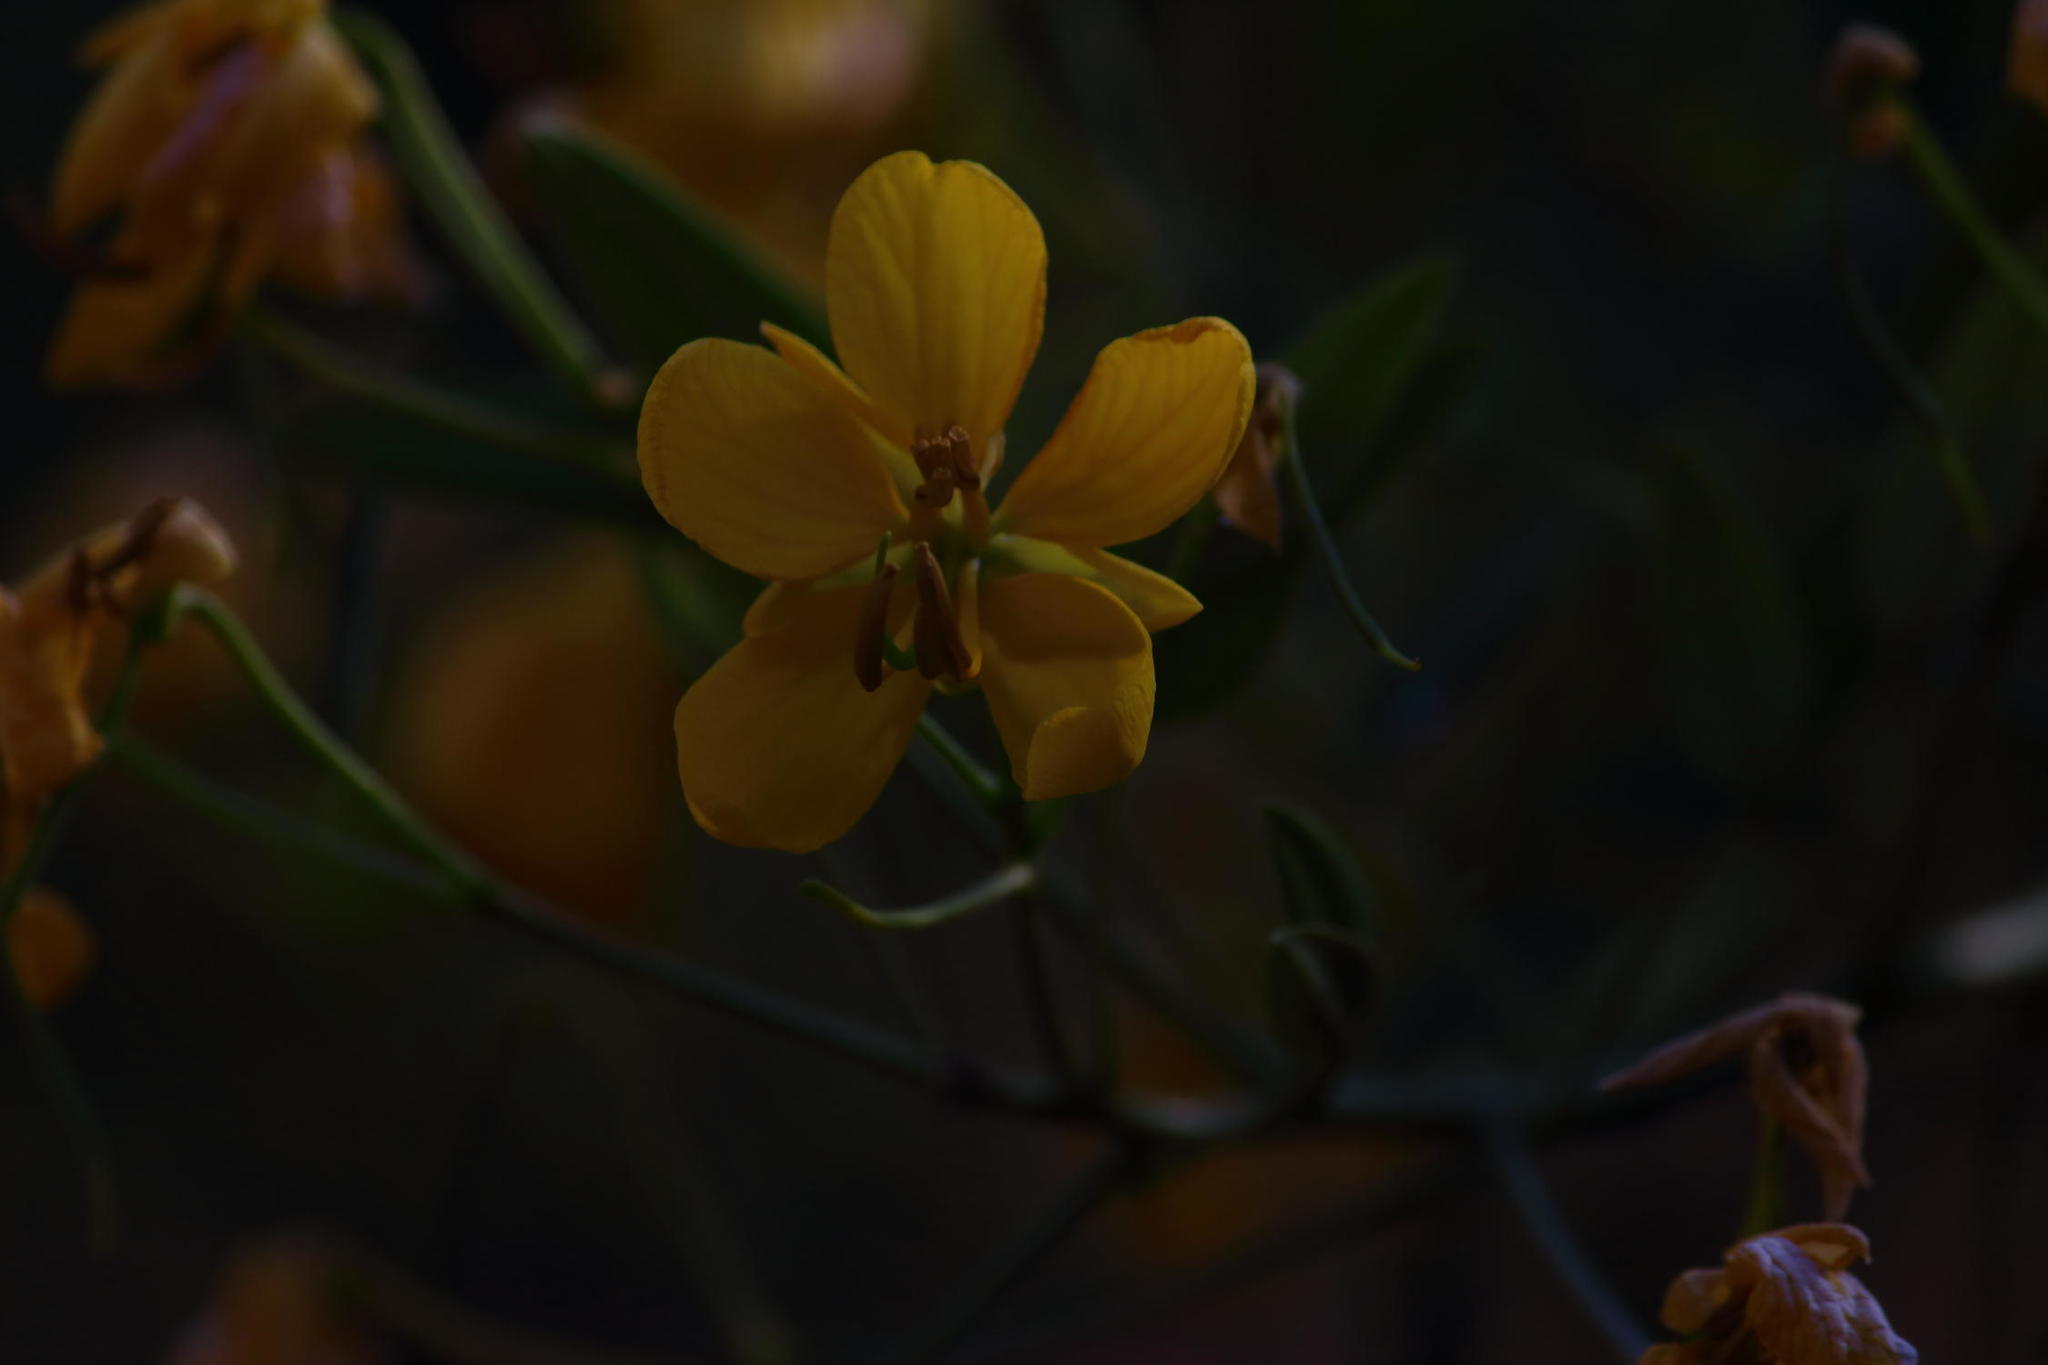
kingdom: Plantae
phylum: Tracheophyta
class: Magnoliopsida
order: Fabales
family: Fabaceae
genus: Senna
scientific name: Senna corymbosa
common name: Argentine senna
